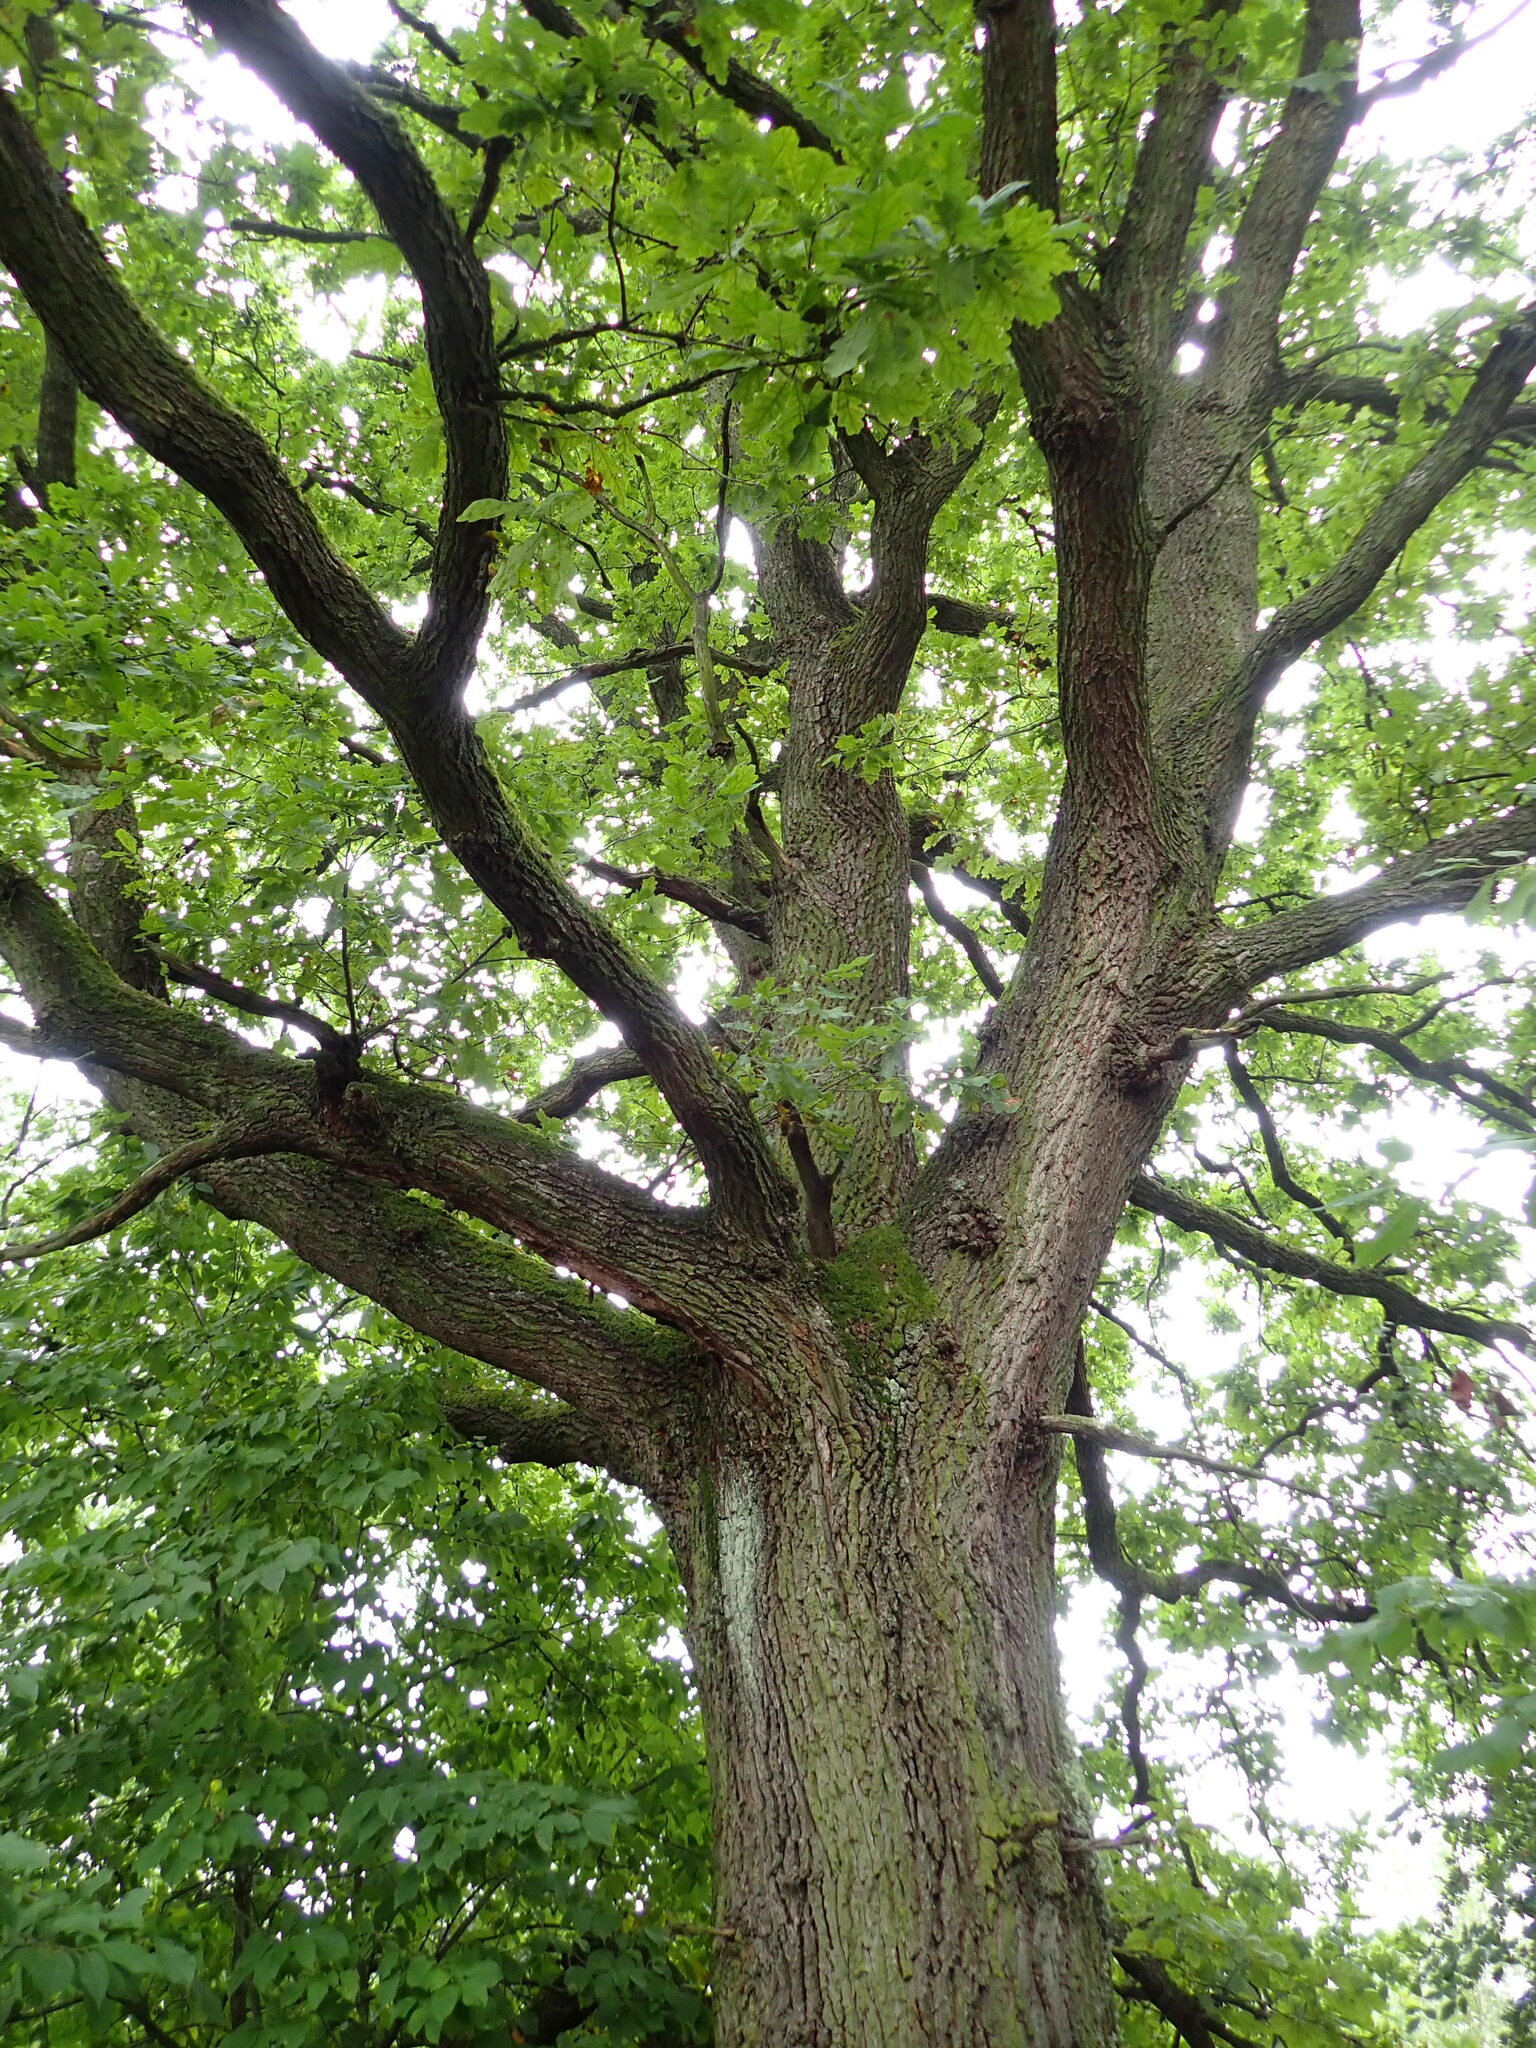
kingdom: Plantae
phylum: Tracheophyta
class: Magnoliopsida
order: Fagales
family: Fagaceae
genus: Quercus
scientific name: Quercus robur
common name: Pedunculate oak
